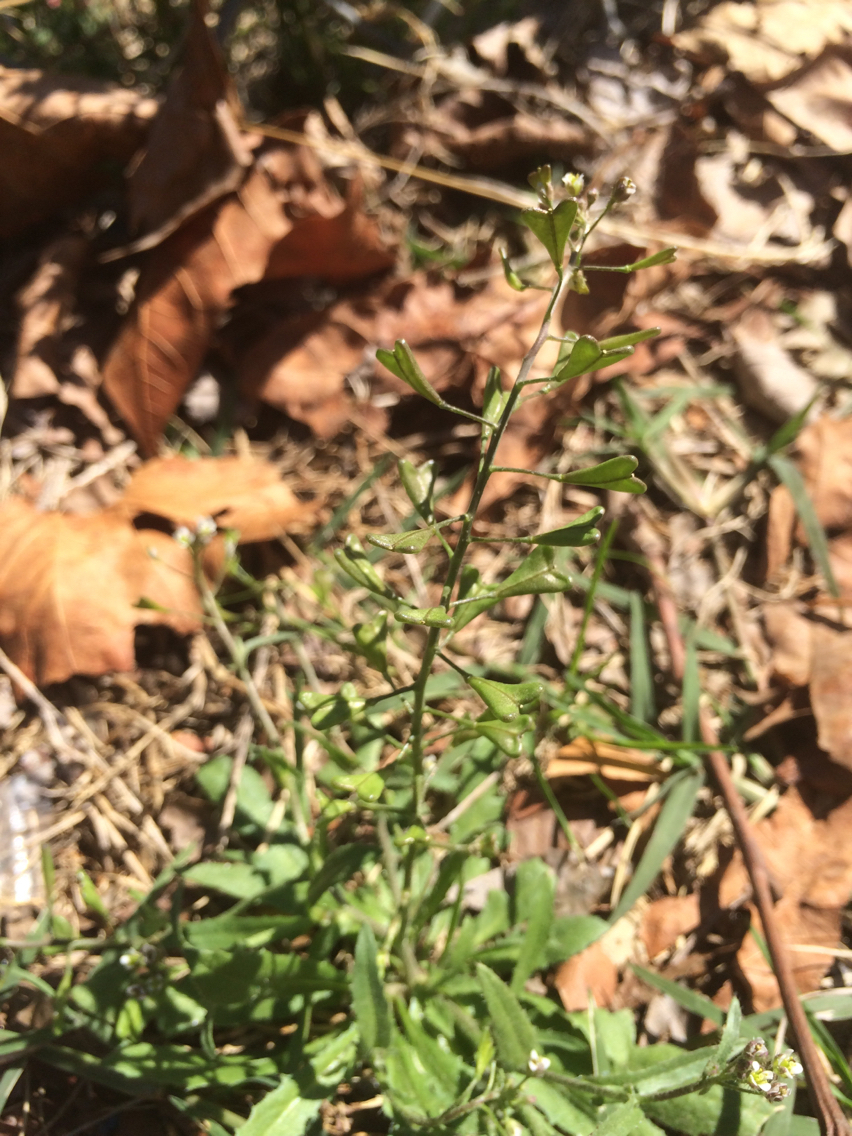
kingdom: Plantae
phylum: Tracheophyta
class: Magnoliopsida
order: Brassicales
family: Brassicaceae
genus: Capsella
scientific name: Capsella bursa-pastoris
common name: Shepherd's purse
